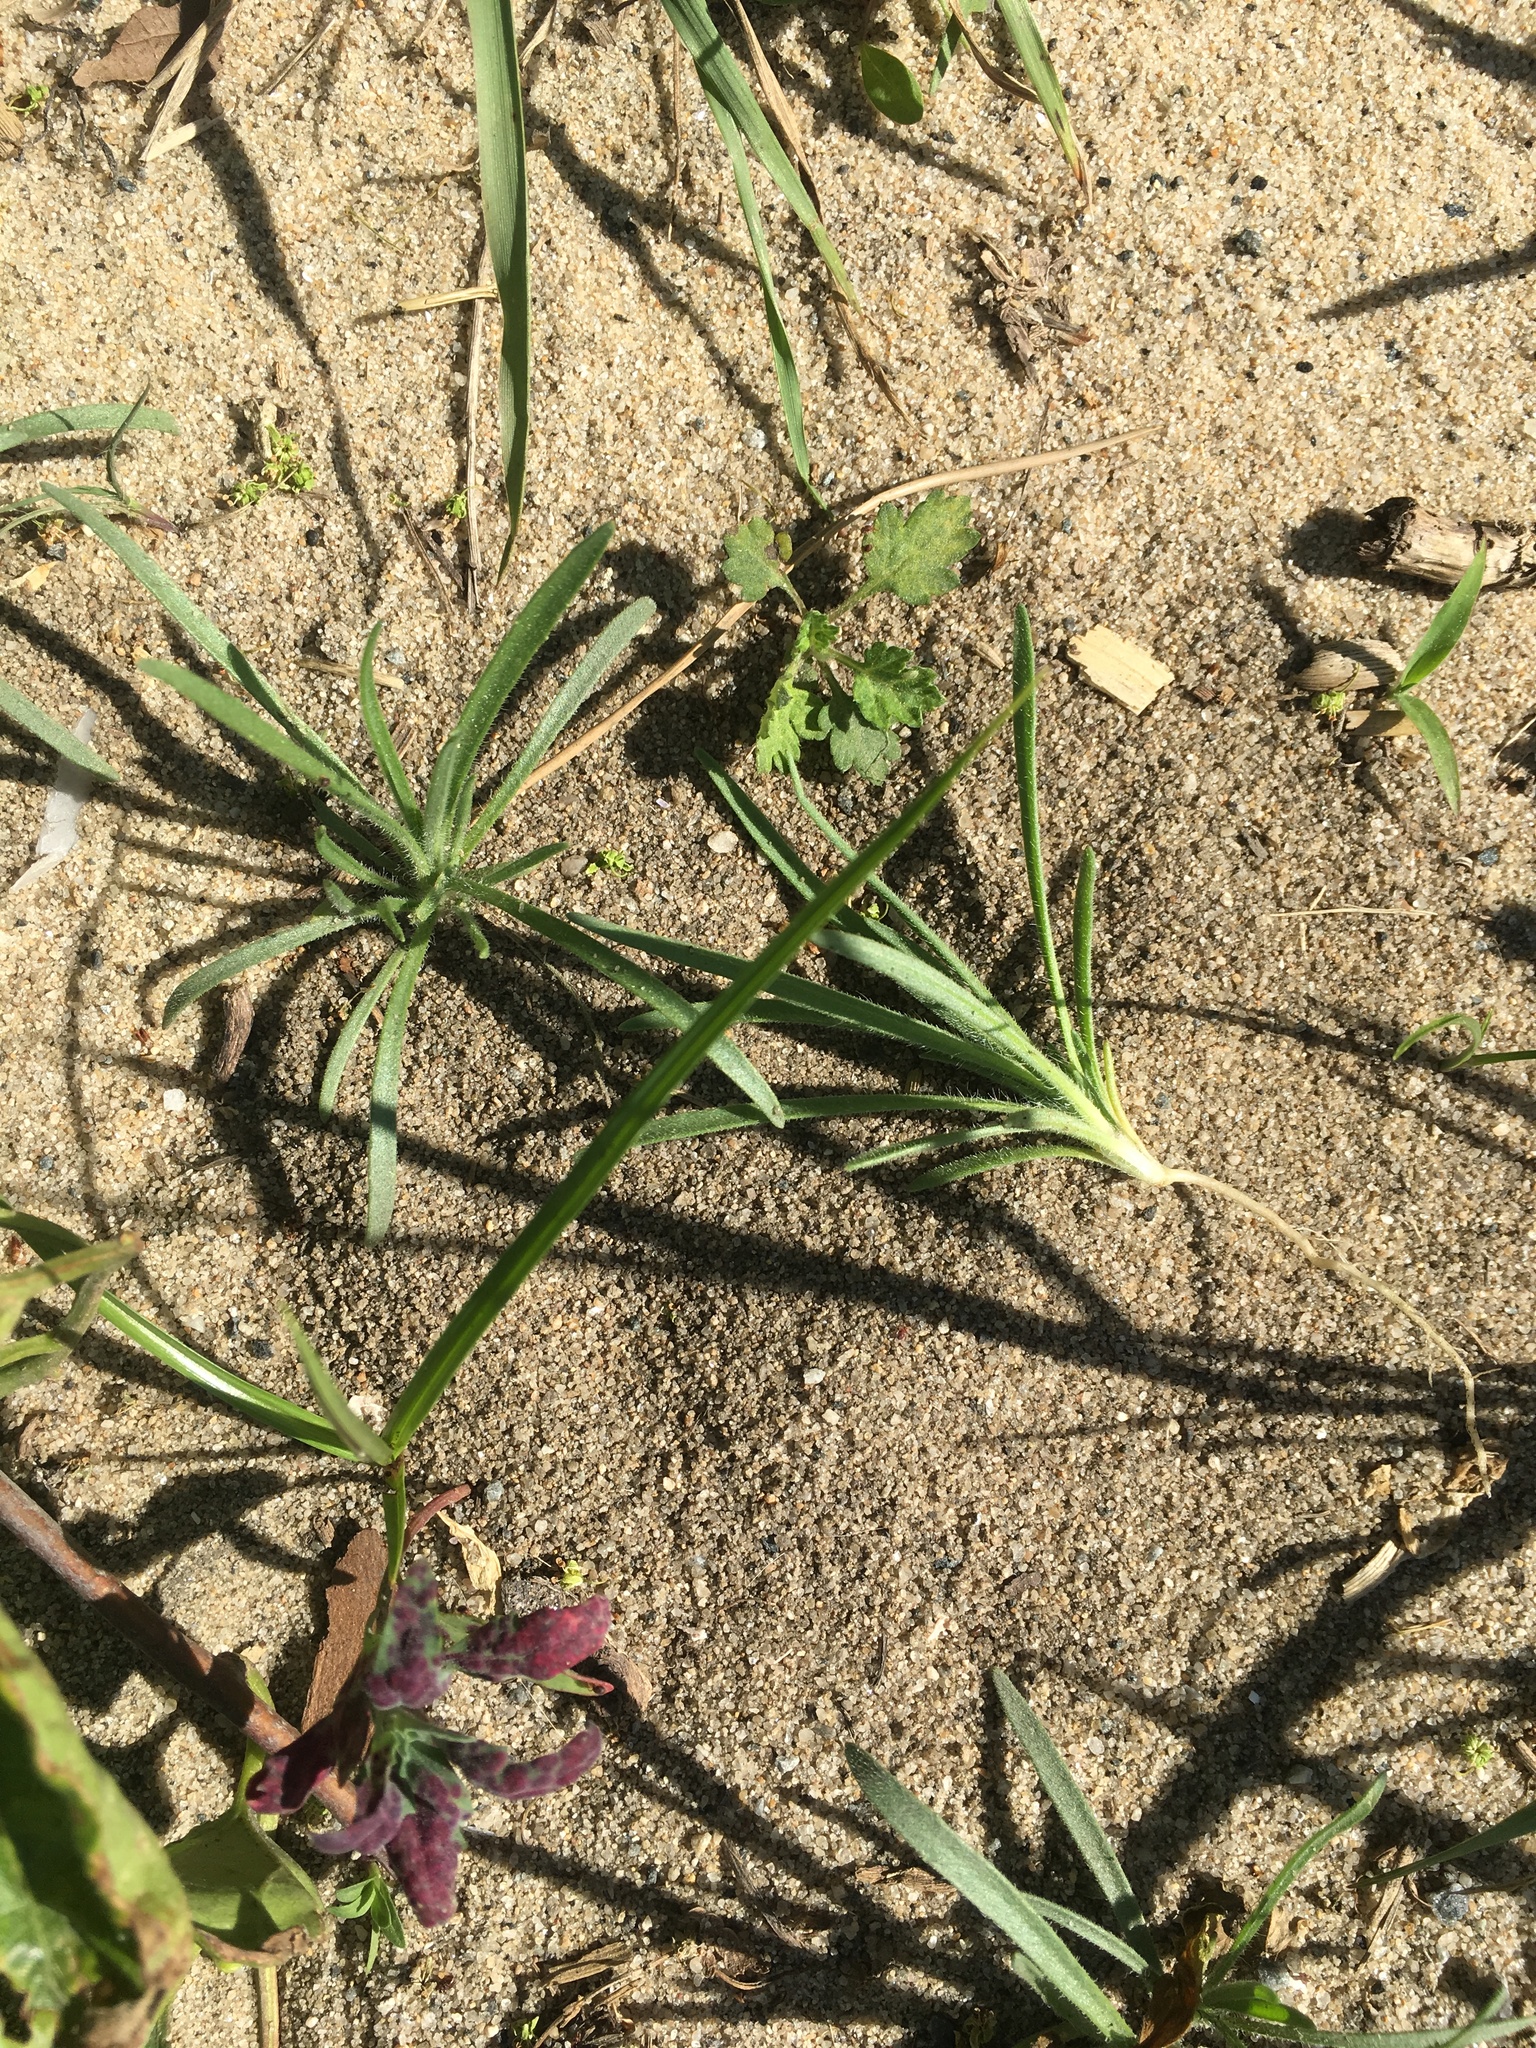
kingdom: Plantae
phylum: Tracheophyta
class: Magnoliopsida
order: Lamiales
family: Plantaginaceae
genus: Plantago
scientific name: Plantago aristata
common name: Bracted plantain
